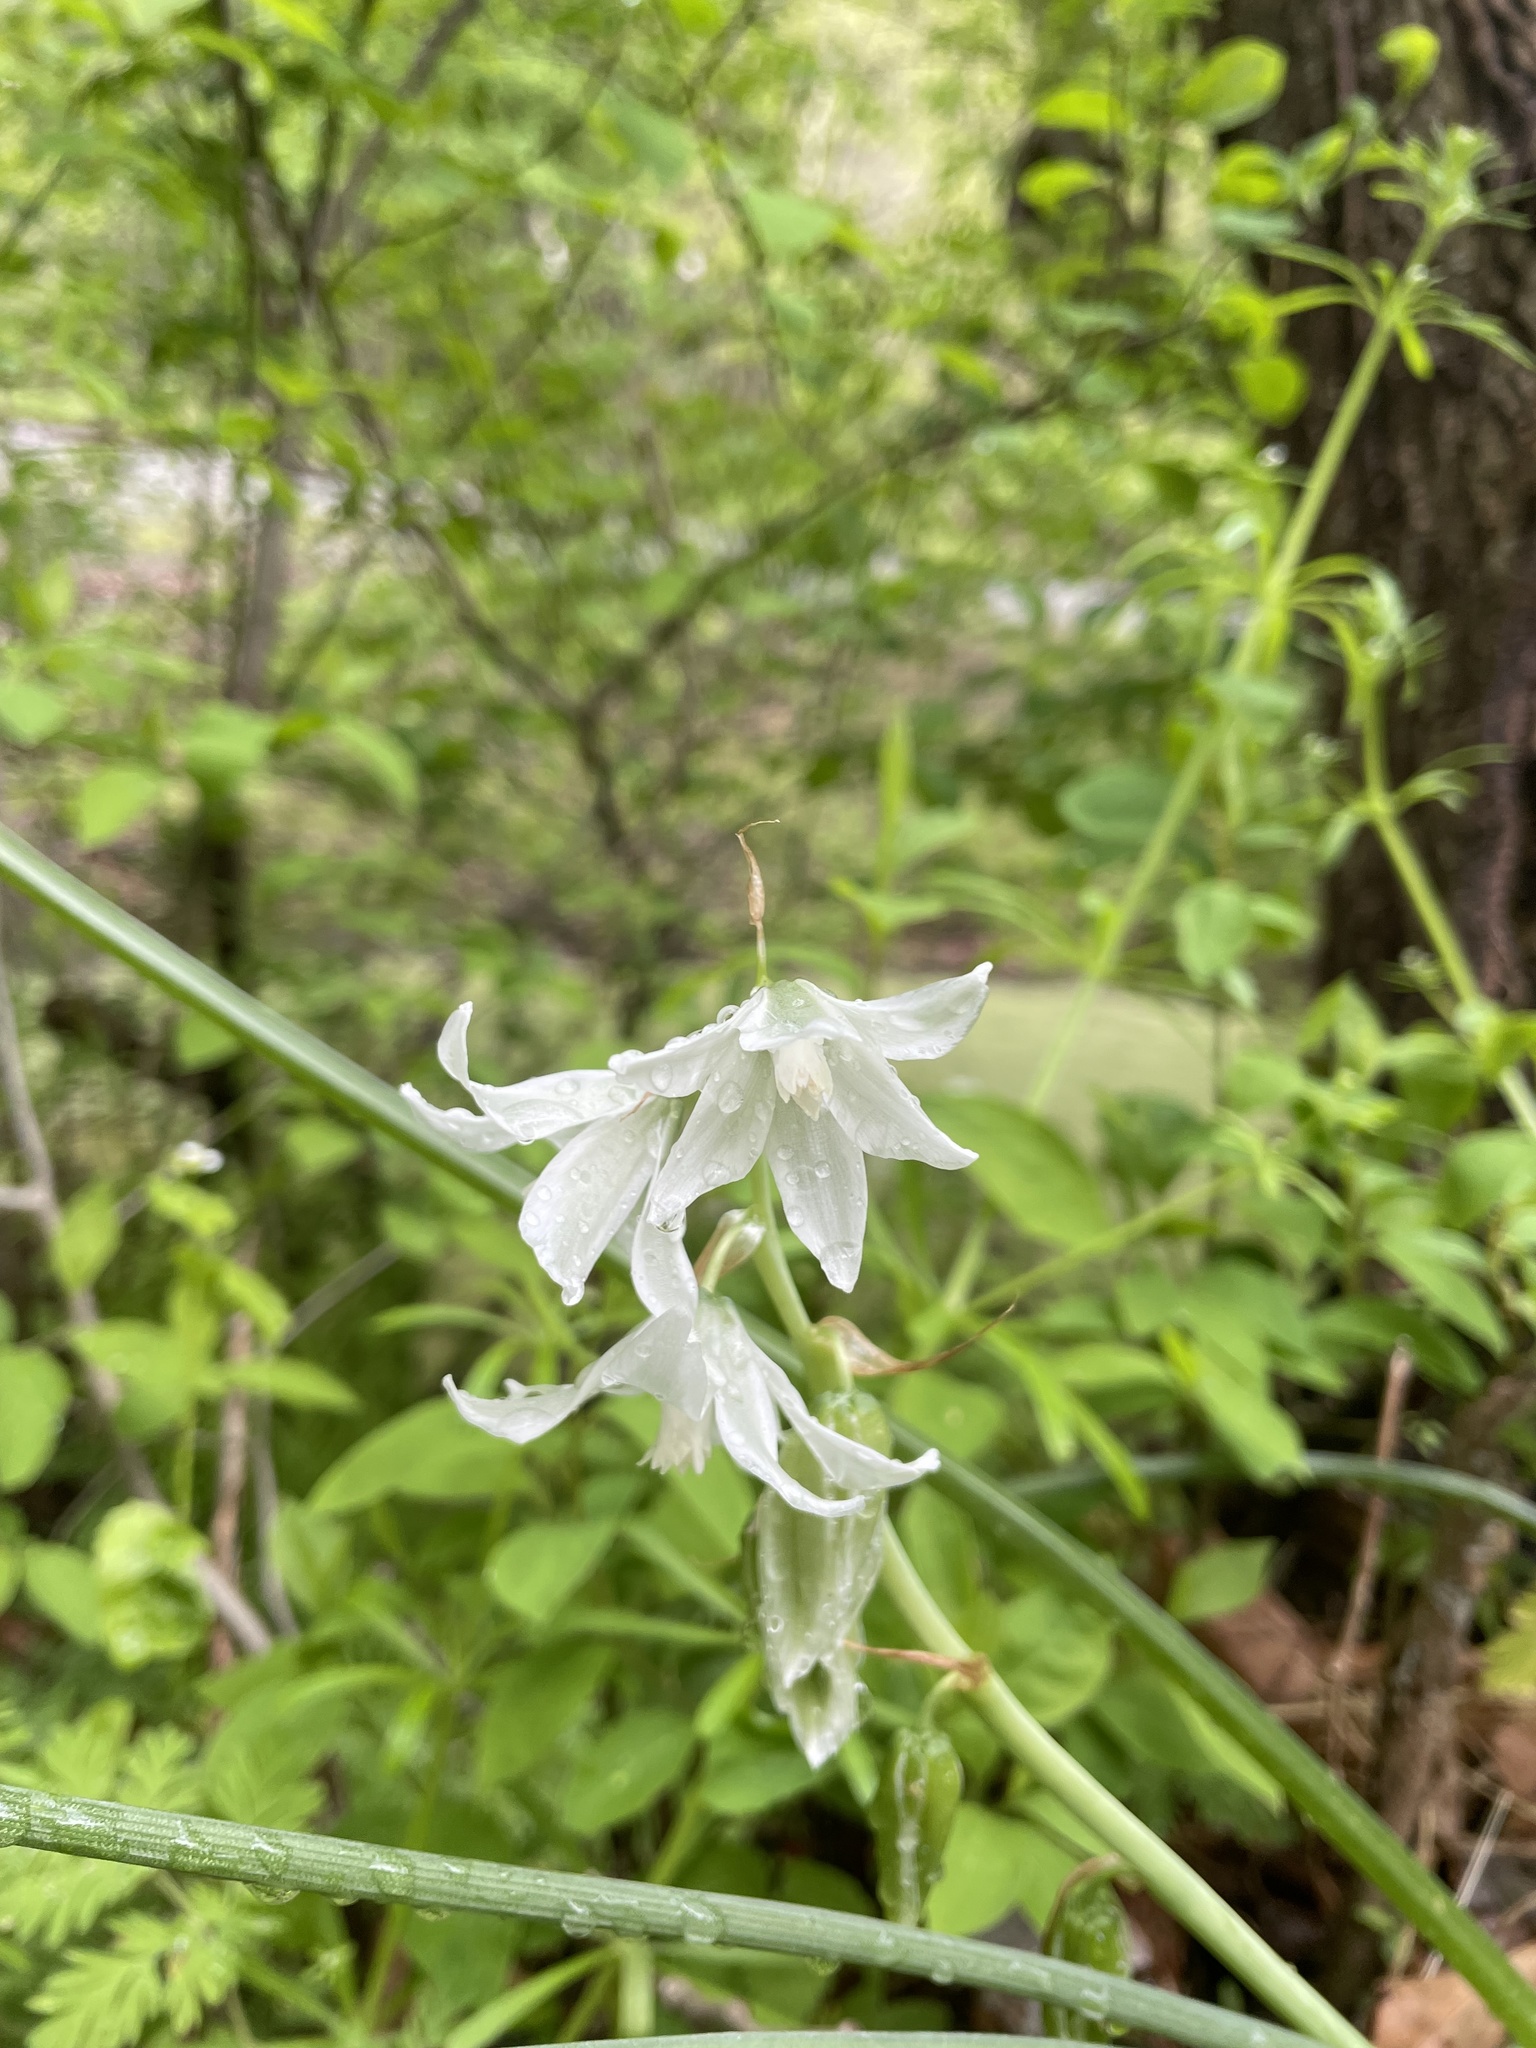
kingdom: Plantae
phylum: Tracheophyta
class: Liliopsida
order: Asparagales
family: Asparagaceae
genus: Ornithogalum
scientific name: Ornithogalum nutans
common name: Drooping star-of-bethlehem
